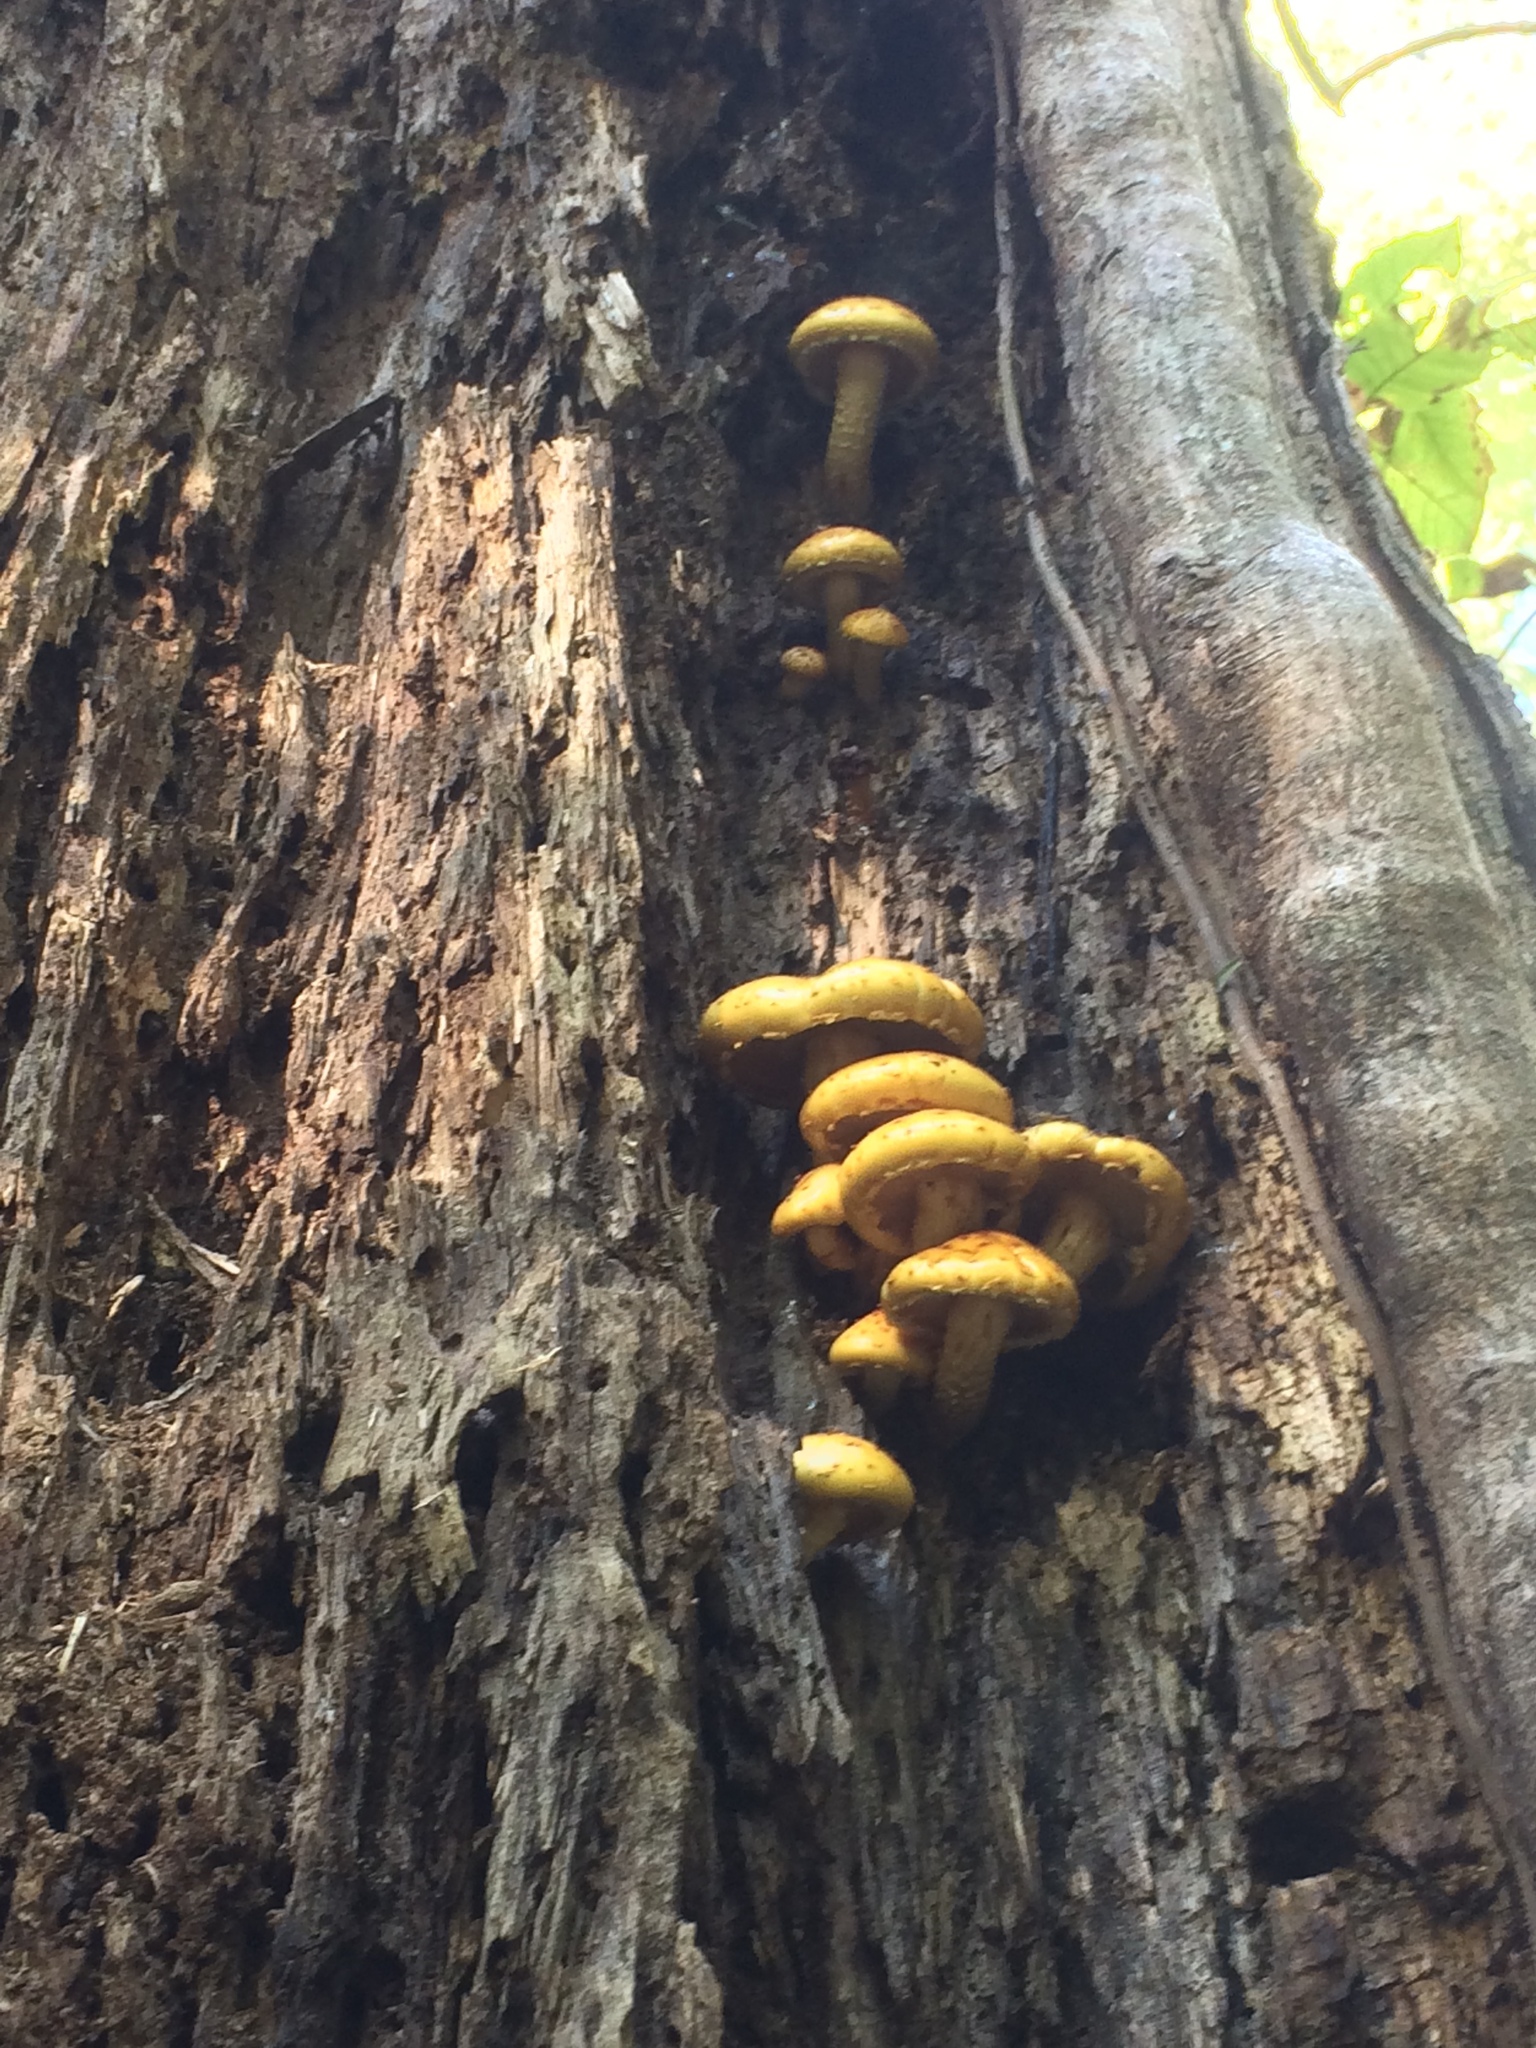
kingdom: Fungi
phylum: Basidiomycota
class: Agaricomycetes
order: Agaricales
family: Strophariaceae
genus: Pholiota
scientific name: Pholiota aurivella
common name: Golden scalycap
